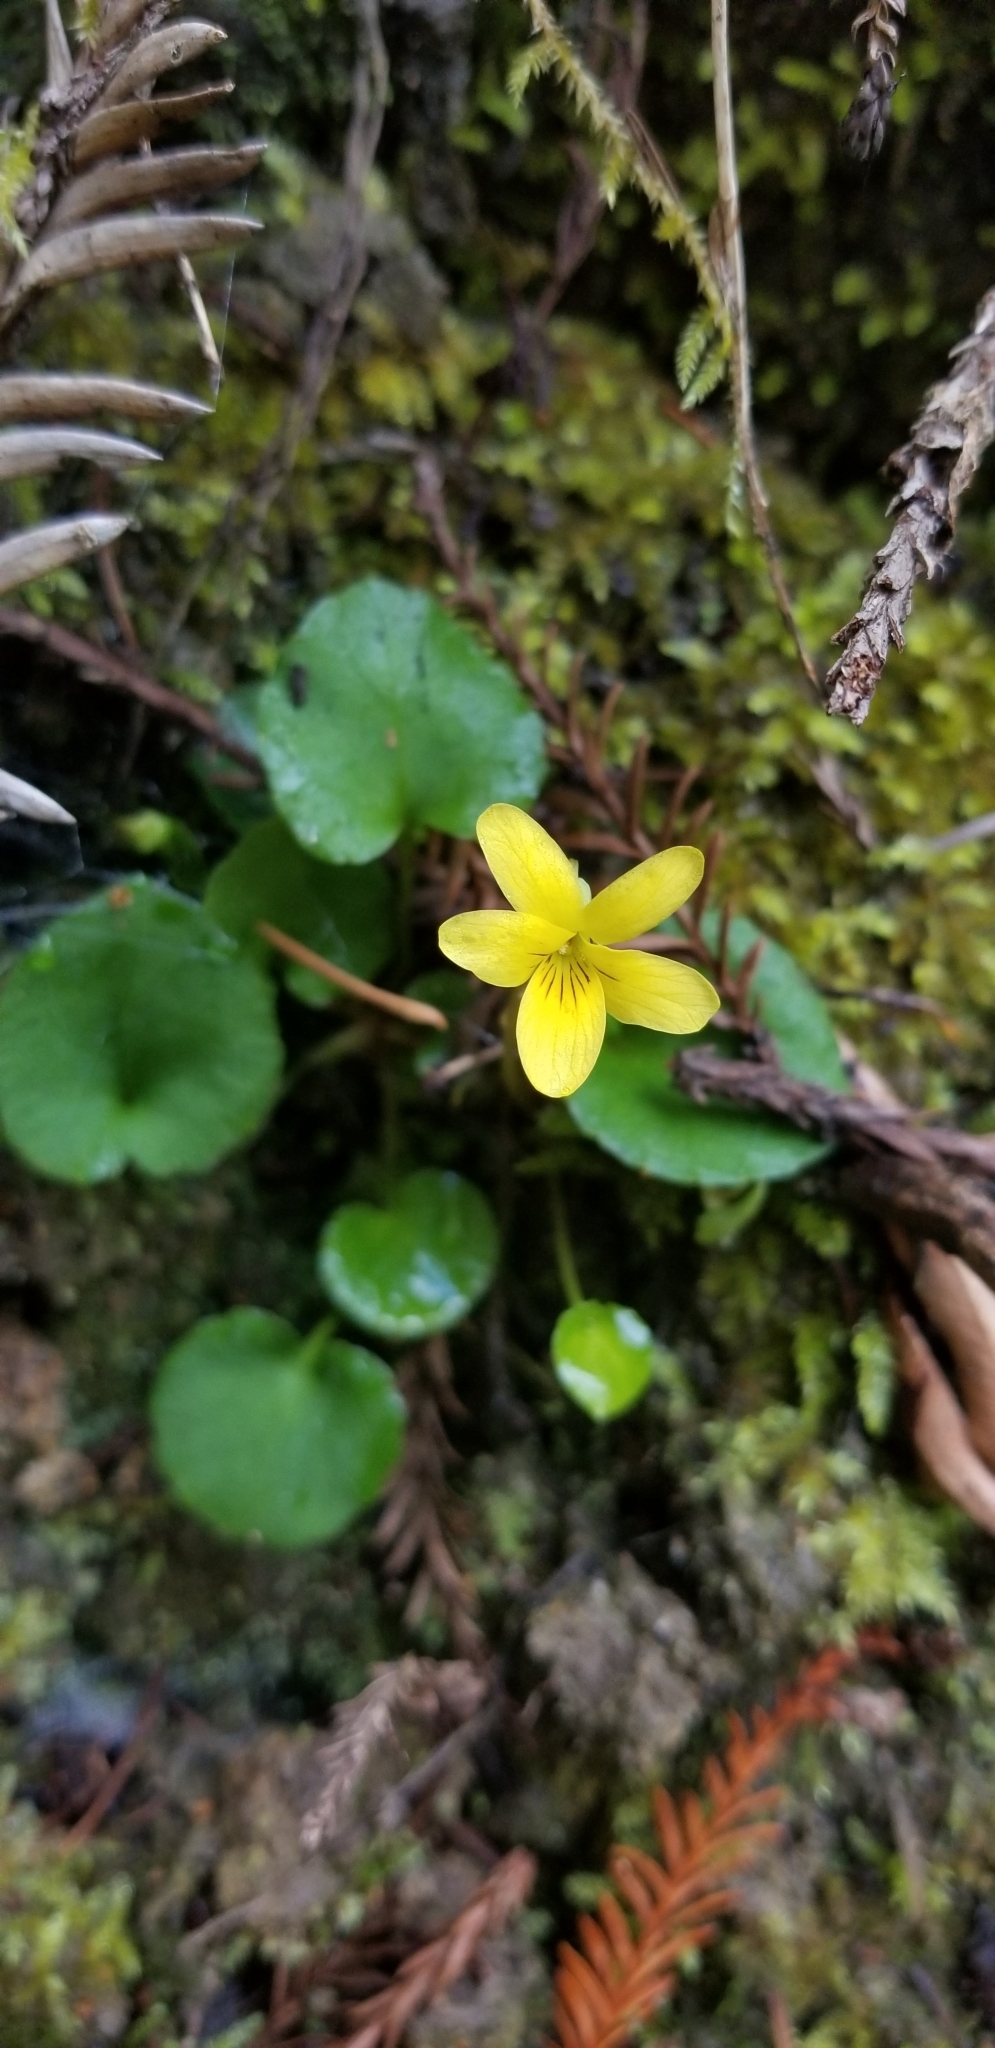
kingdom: Plantae
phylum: Tracheophyta
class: Magnoliopsida
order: Malpighiales
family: Violaceae
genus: Viola
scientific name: Viola sempervirens
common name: Evergreen violet
